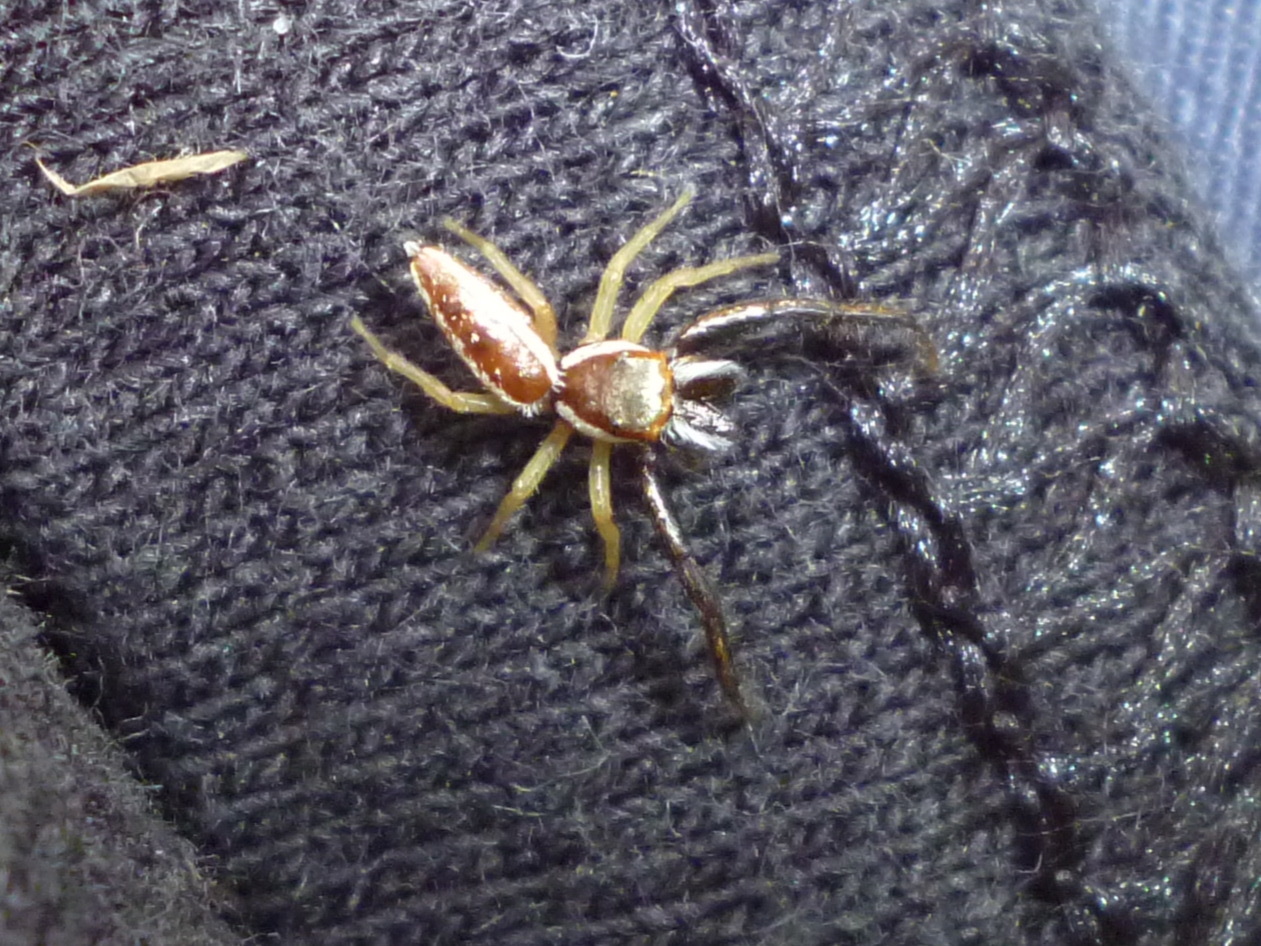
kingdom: Animalia
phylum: Arthropoda
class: Arachnida
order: Araneae
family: Salticidae
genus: Hentzia
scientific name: Hentzia palmarum
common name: Common hentz jumping spider
